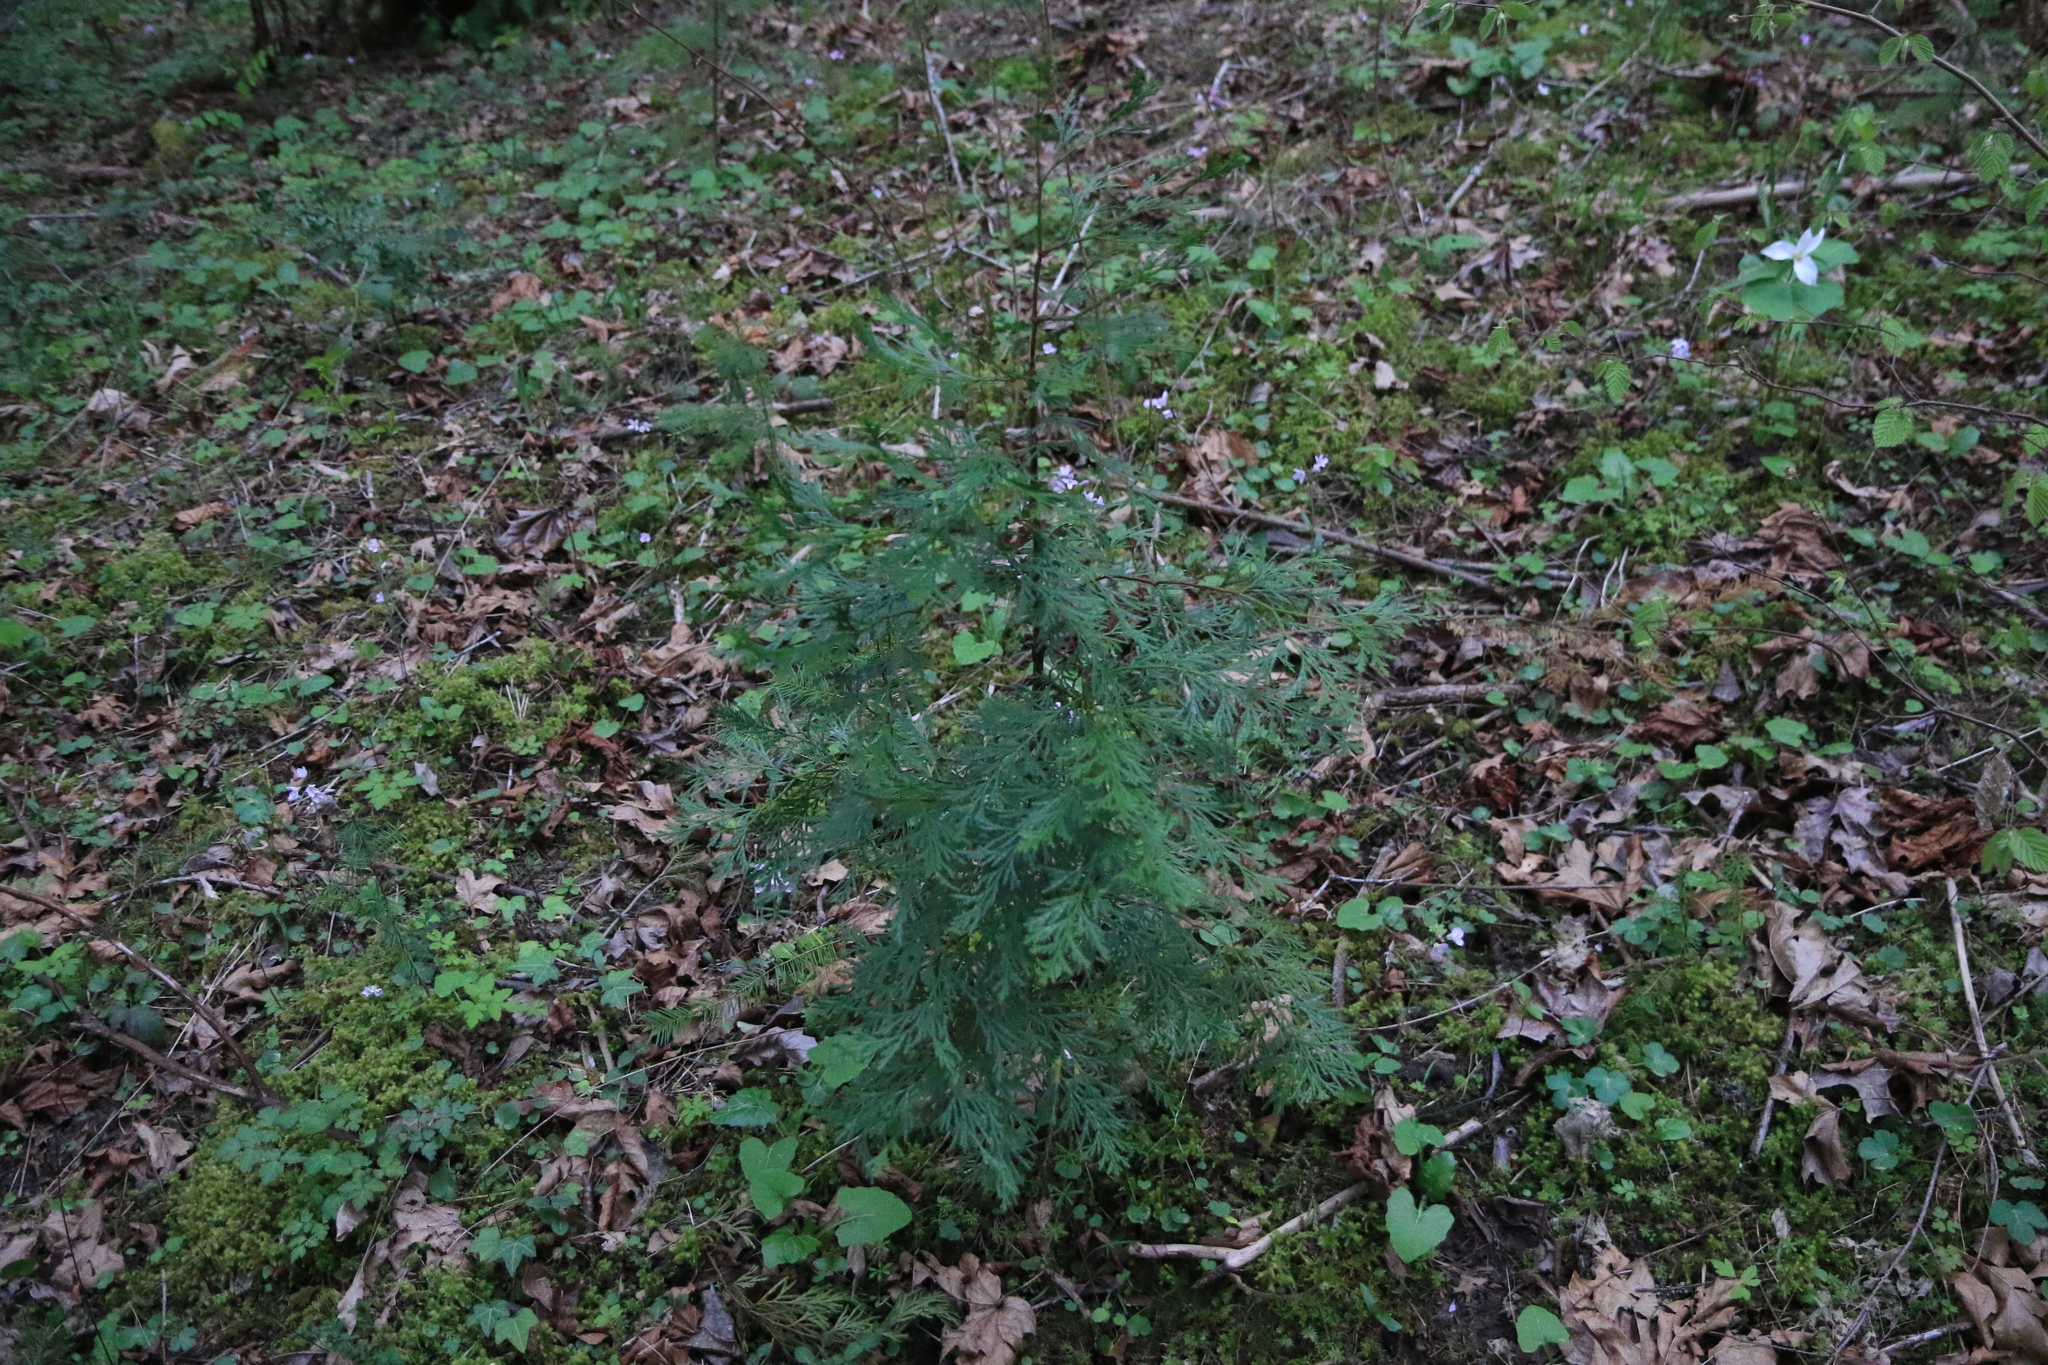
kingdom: Plantae
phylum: Tracheophyta
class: Pinopsida
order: Pinales
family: Cupressaceae
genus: Calocedrus
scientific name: Calocedrus decurrens
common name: Californian incense-cedar
